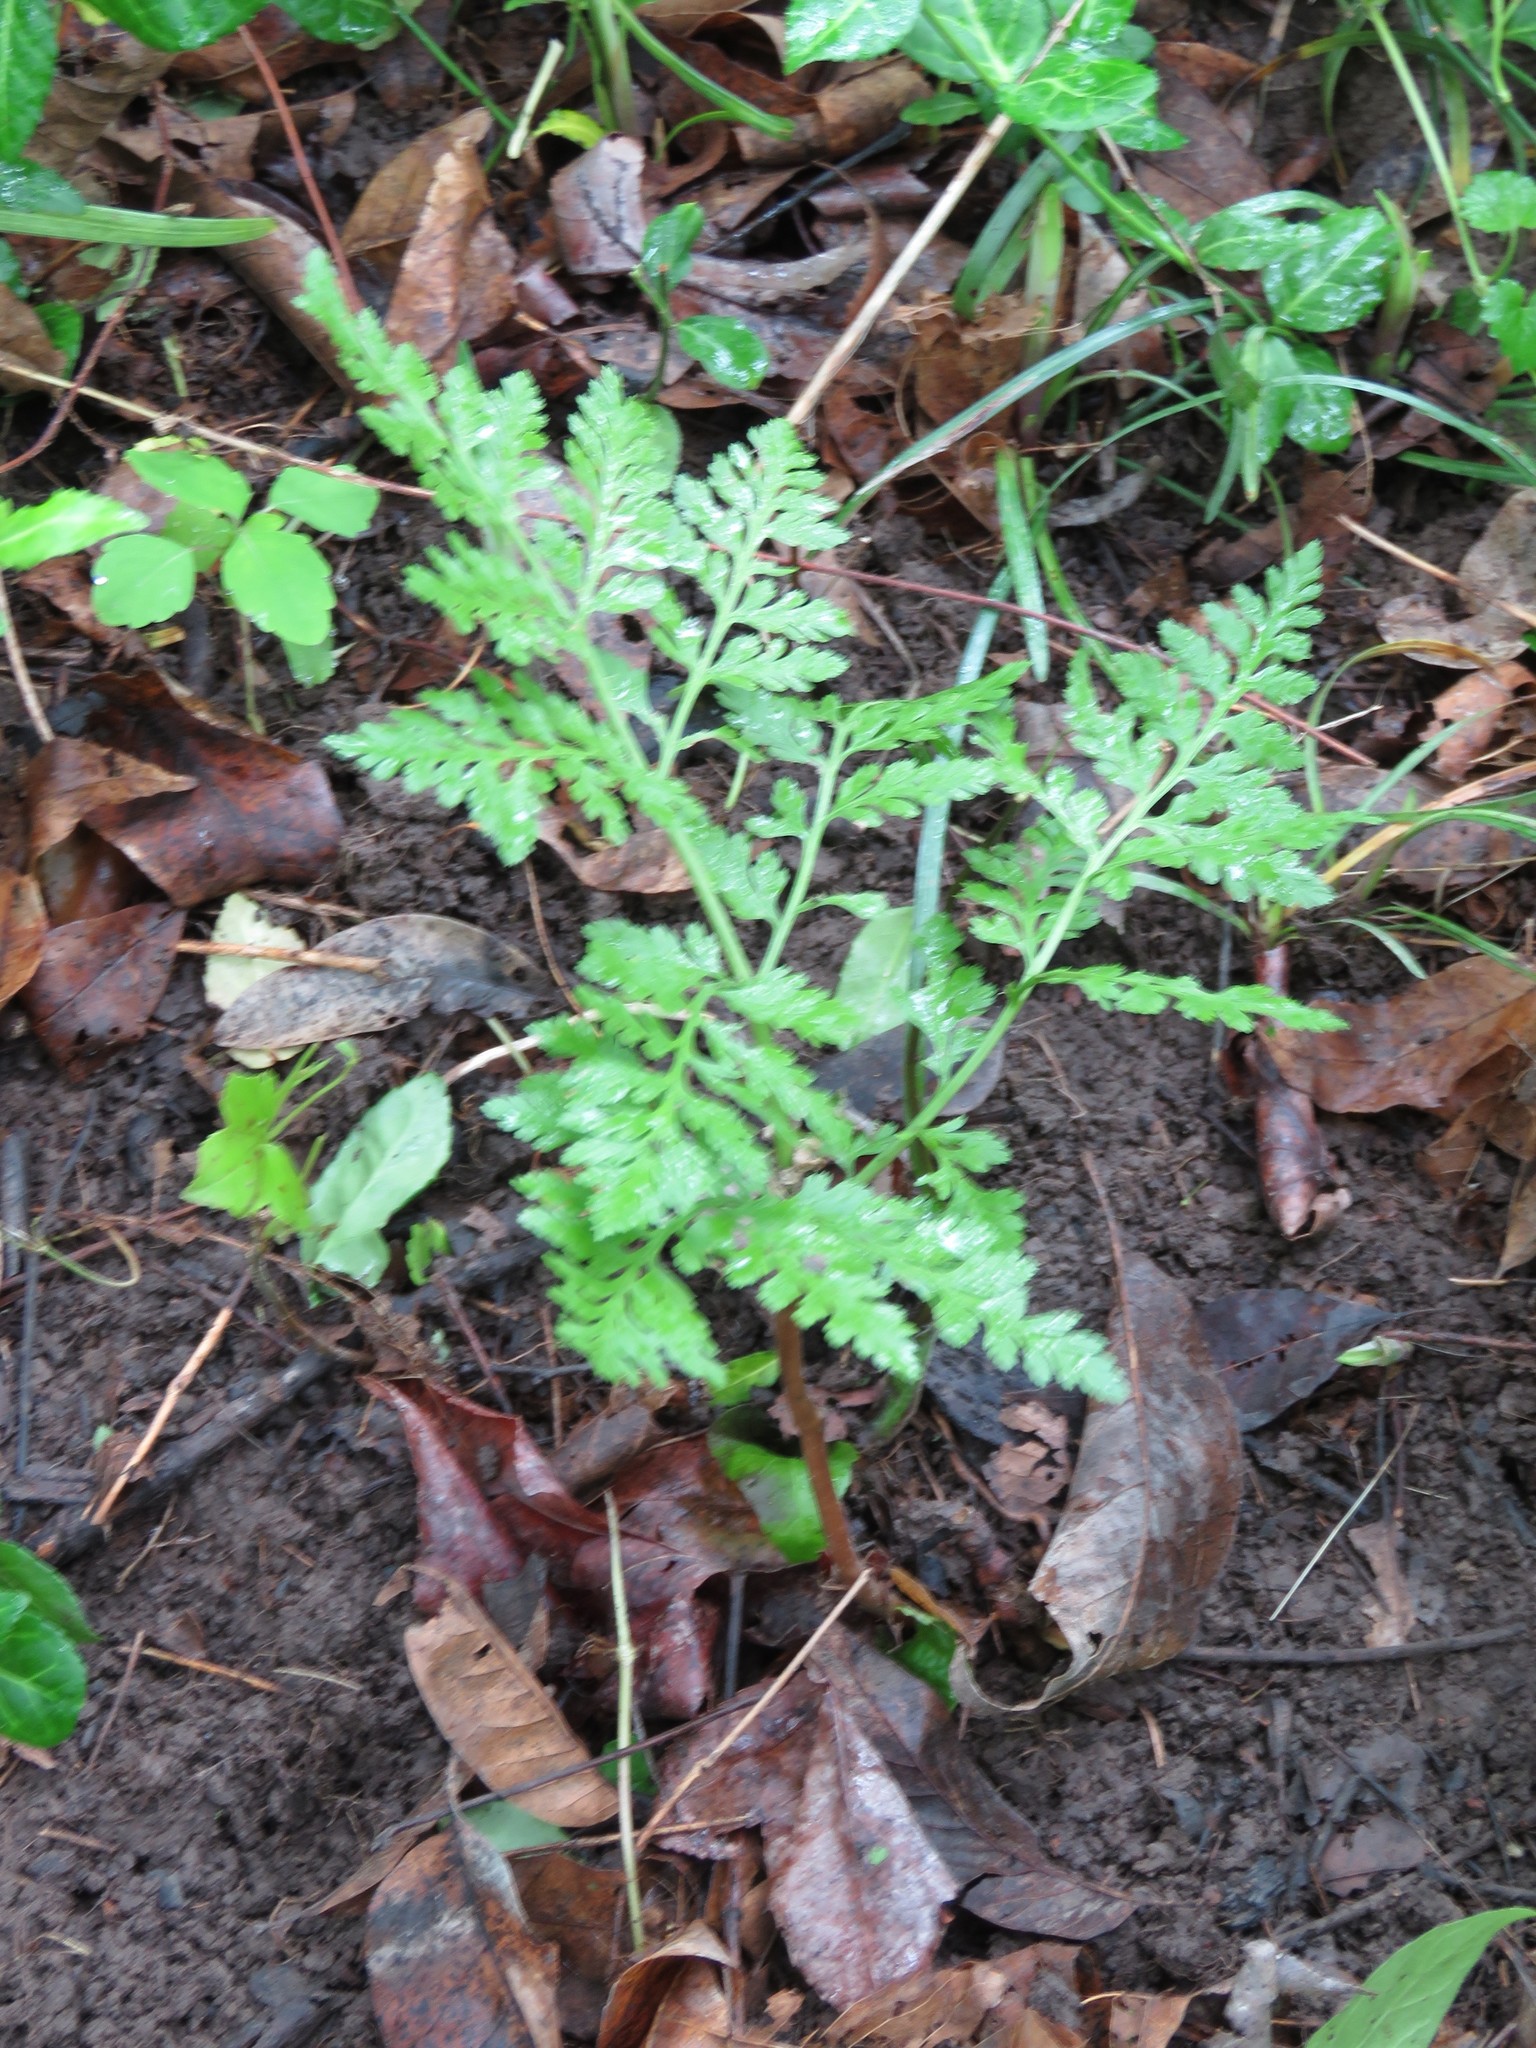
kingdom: Plantae
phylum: Tracheophyta
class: Polypodiopsida
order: Ophioglossales
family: Ophioglossaceae
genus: Botrypus
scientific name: Botrypus virginianus
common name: Common grapefern
